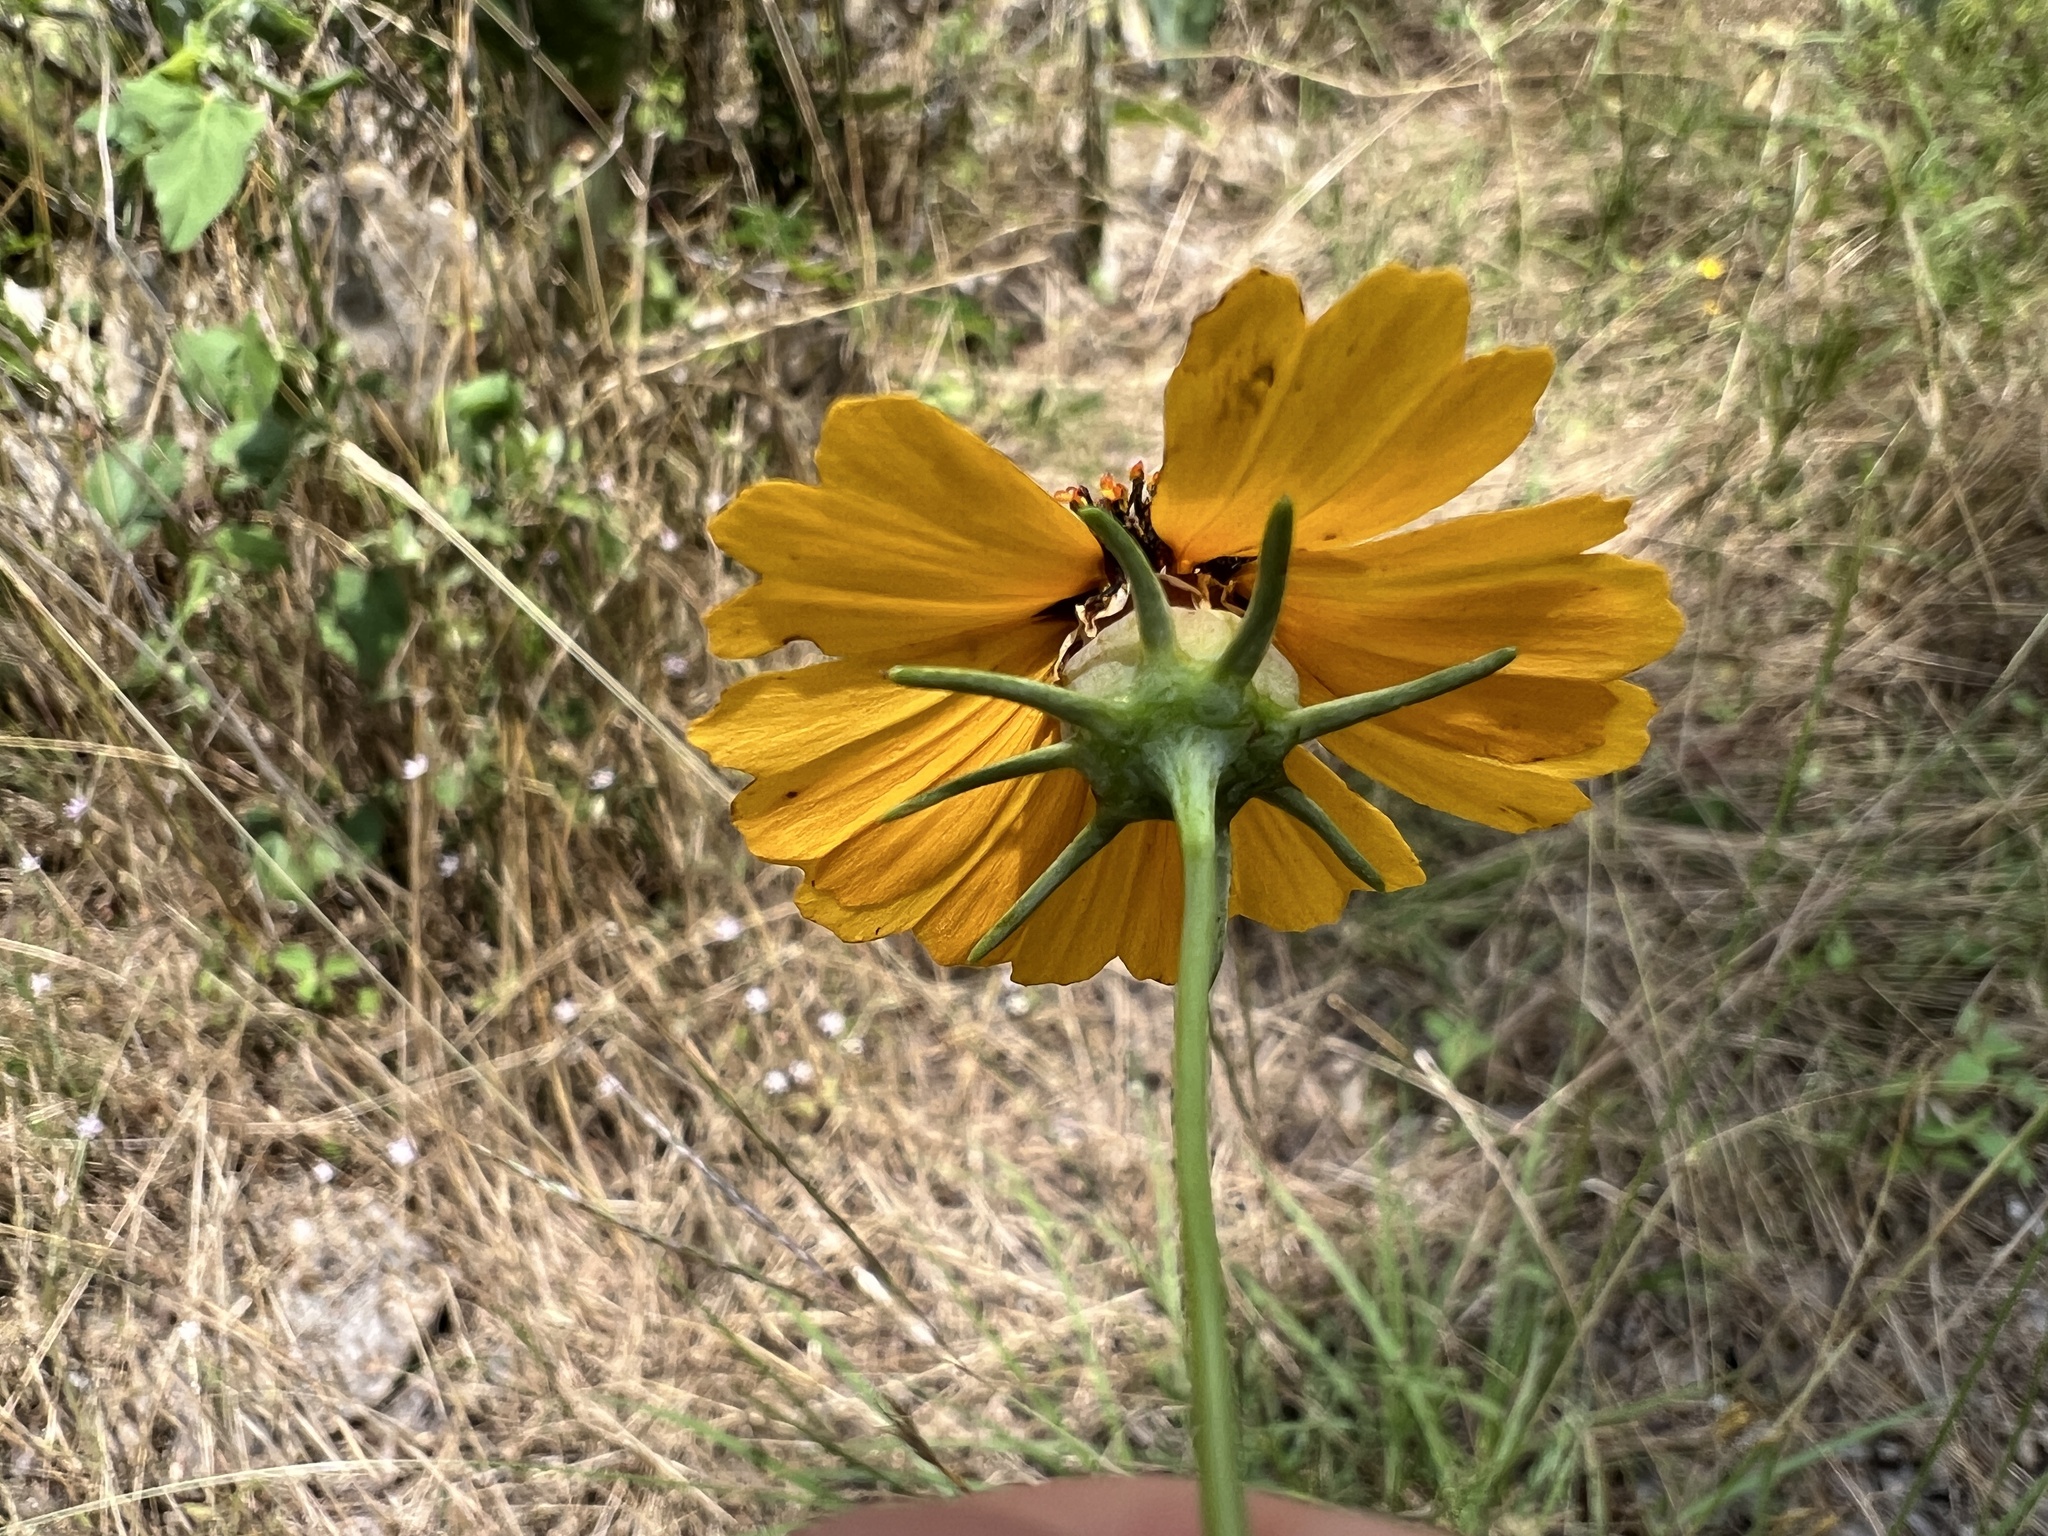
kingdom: Plantae
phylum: Tracheophyta
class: Magnoliopsida
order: Asterales
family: Asteraceae
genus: Thelesperma
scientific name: Thelesperma filifolium
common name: Stiff greenthread
